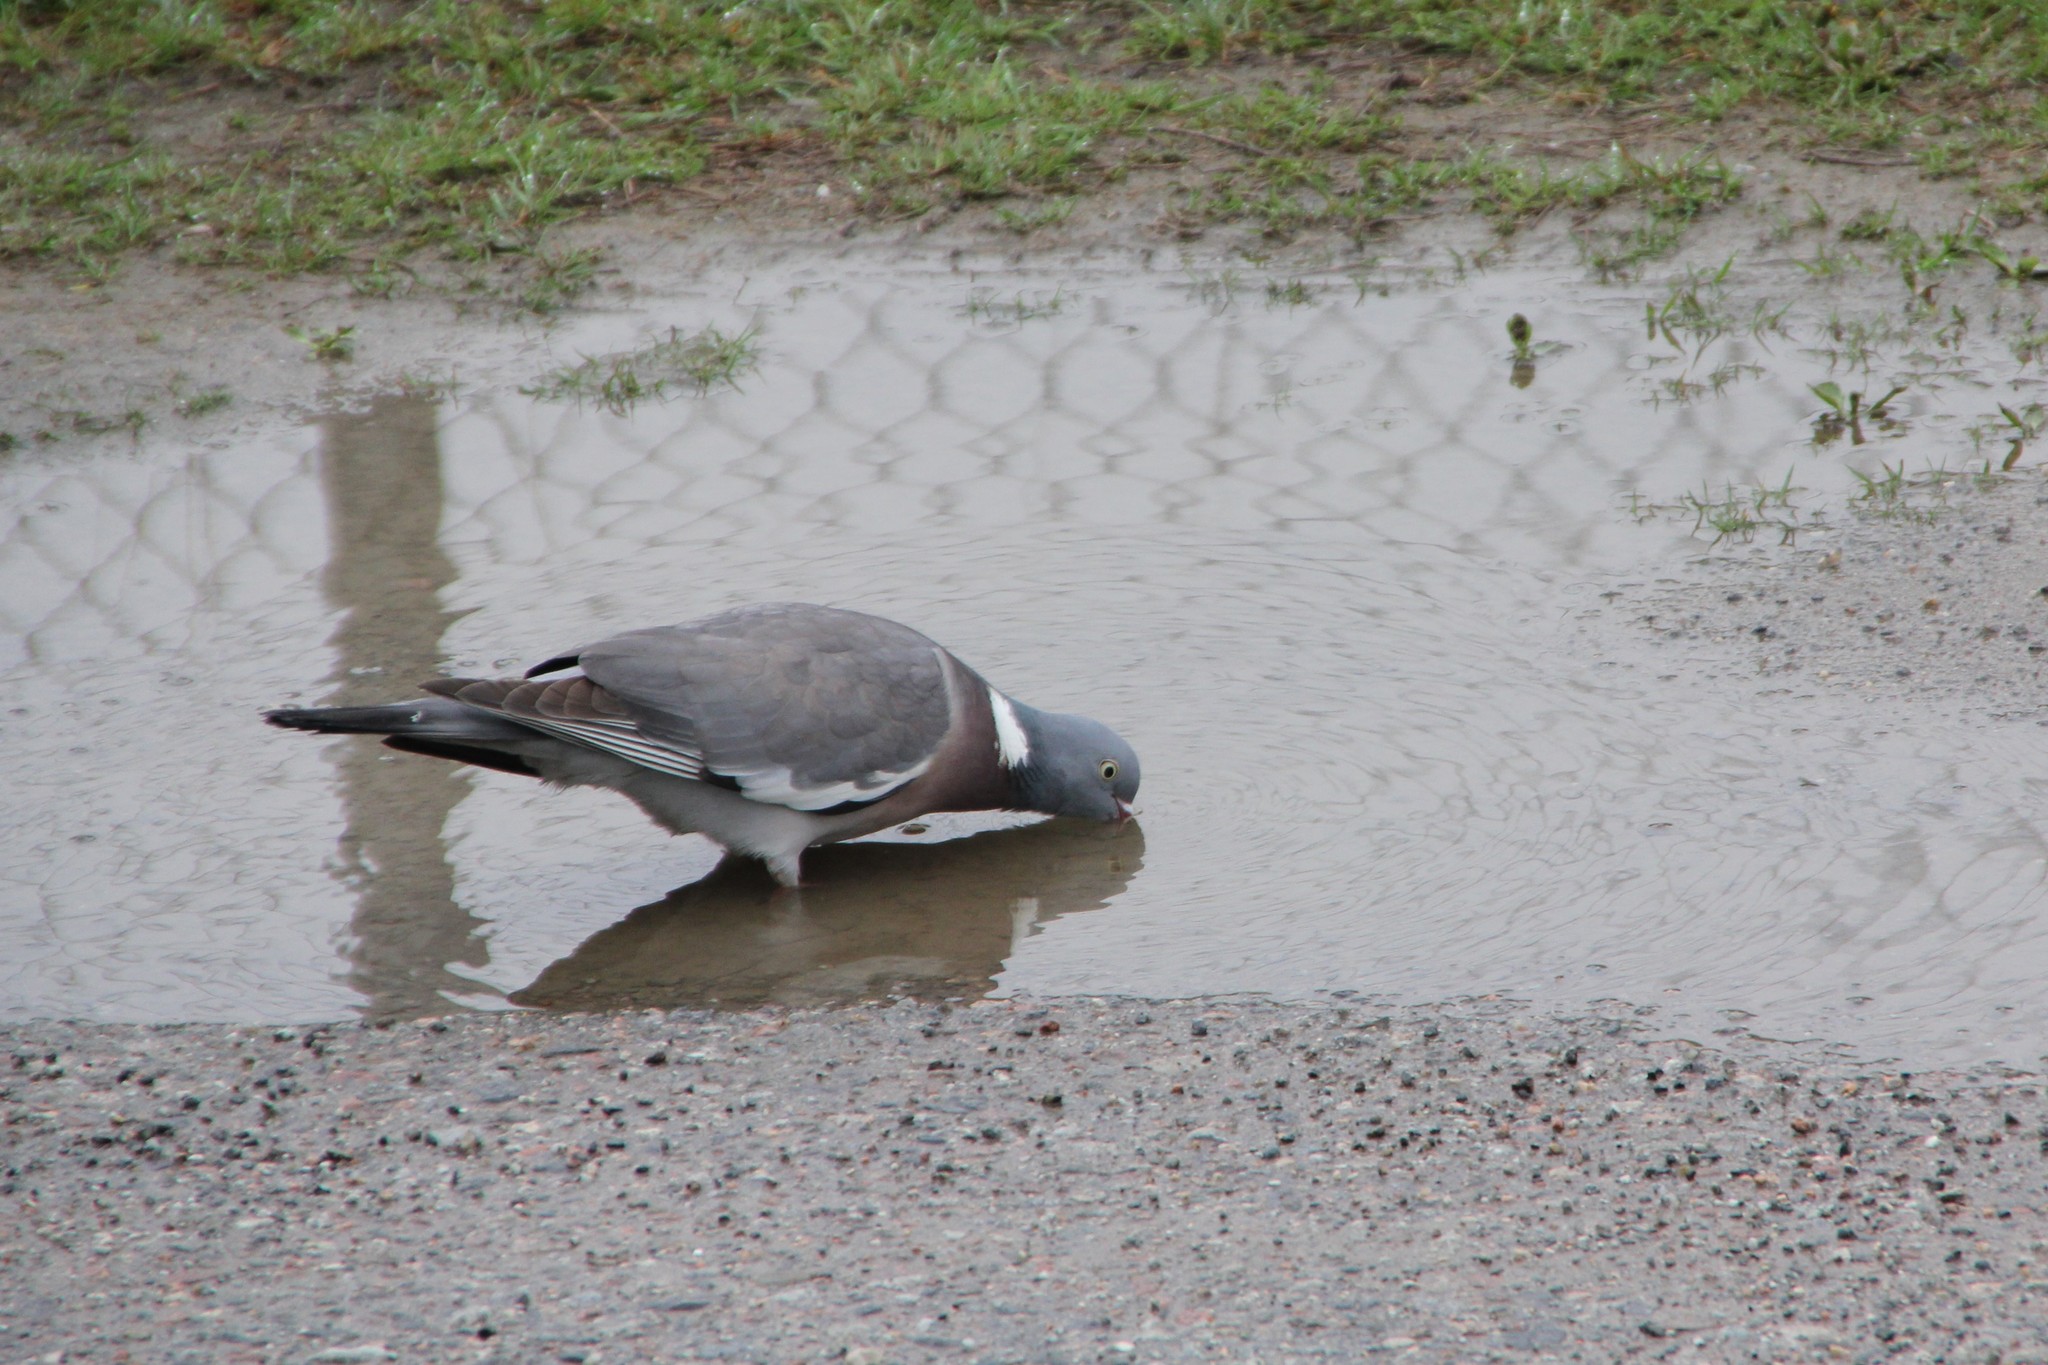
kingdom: Animalia
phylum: Chordata
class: Aves
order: Columbiformes
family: Columbidae
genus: Columba
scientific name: Columba palumbus
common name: Common wood pigeon
